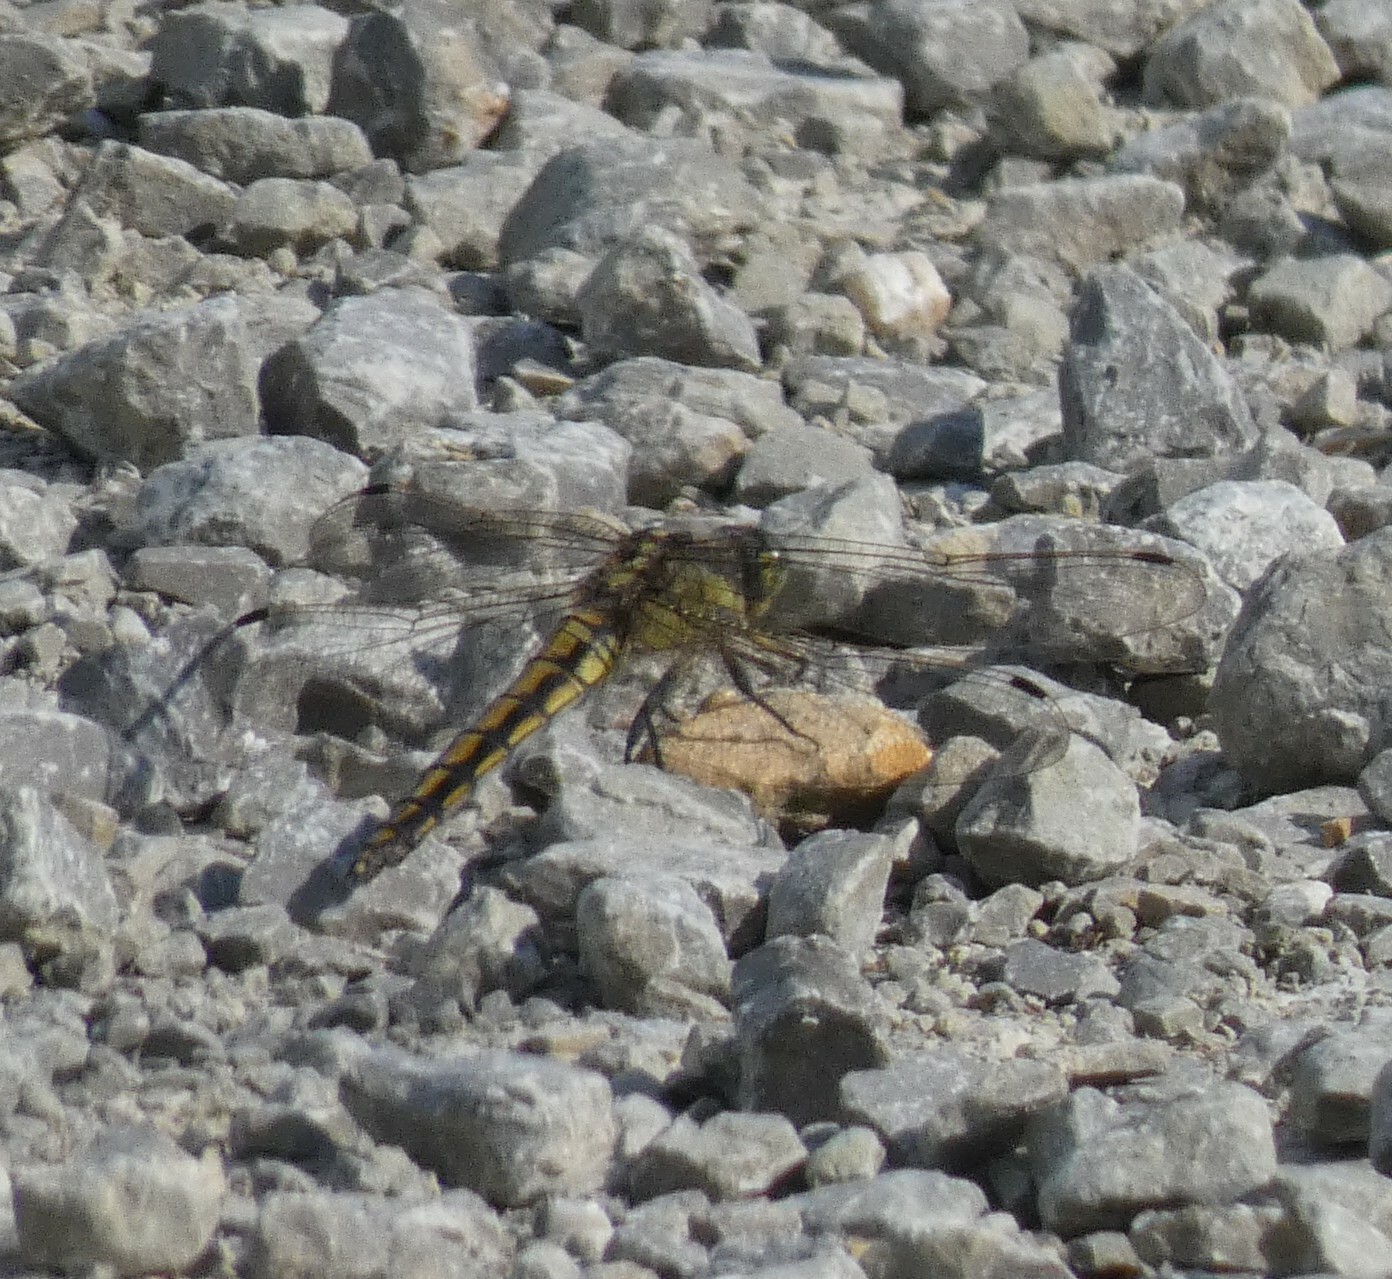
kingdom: Animalia
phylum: Arthropoda
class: Insecta
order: Odonata
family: Libellulidae
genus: Orthetrum
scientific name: Orthetrum cancellatum
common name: Black-tailed skimmer
